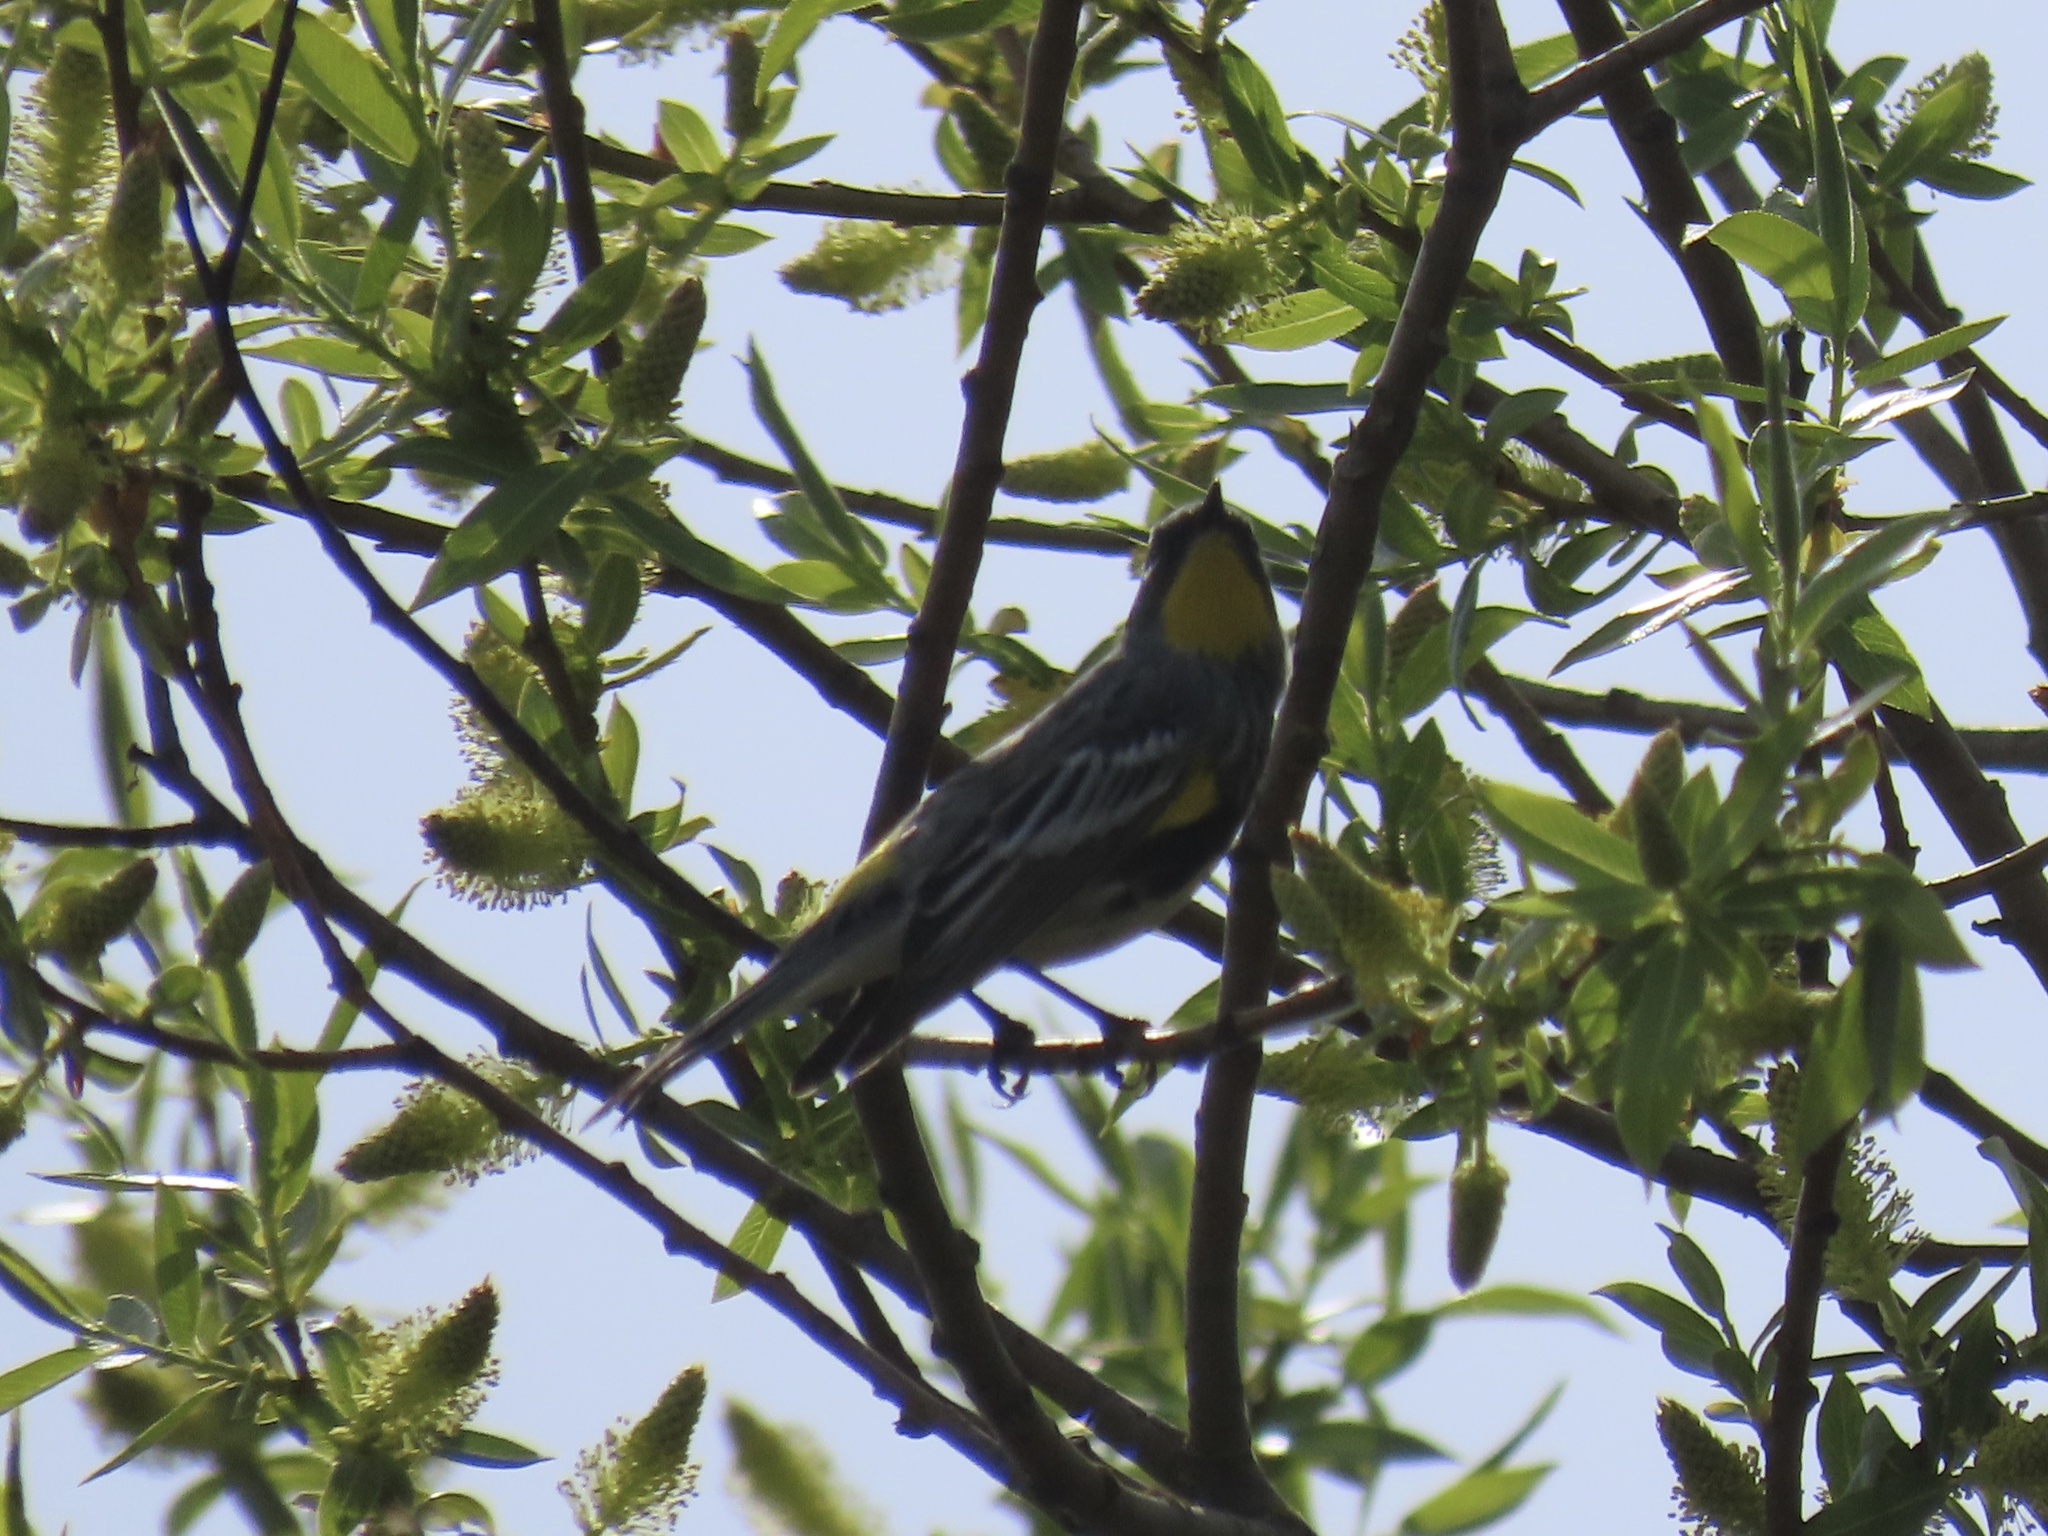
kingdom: Animalia
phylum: Chordata
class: Aves
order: Passeriformes
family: Parulidae
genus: Setophaga
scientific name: Setophaga coronata
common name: Myrtle warbler
